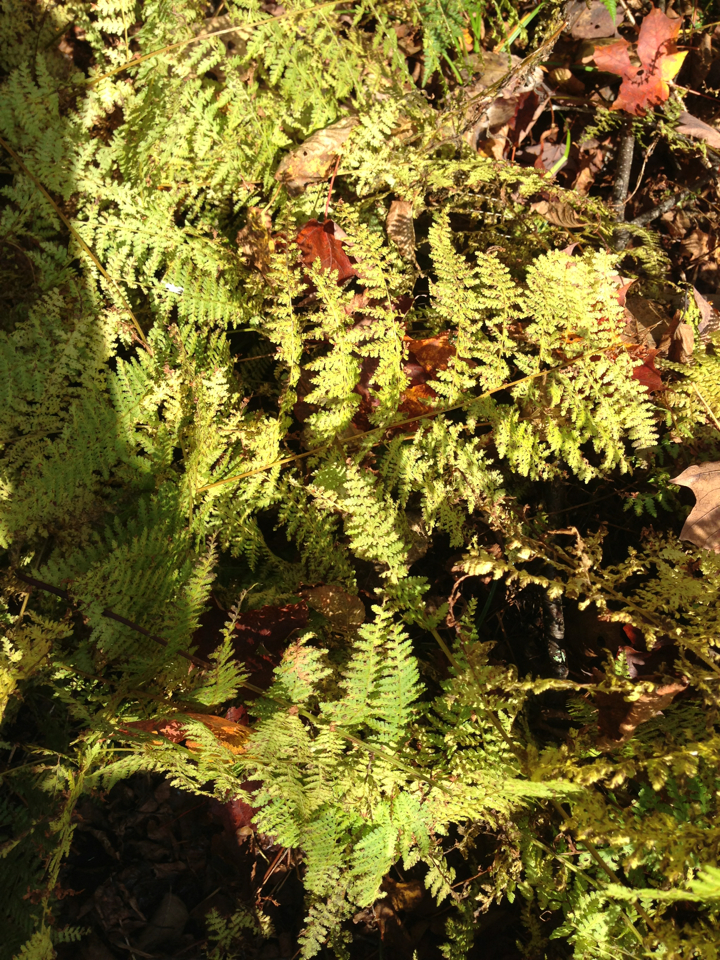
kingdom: Plantae
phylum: Tracheophyta
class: Polypodiopsida
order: Polypodiales
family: Dennstaedtiaceae
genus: Sitobolium
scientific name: Sitobolium punctilobum
